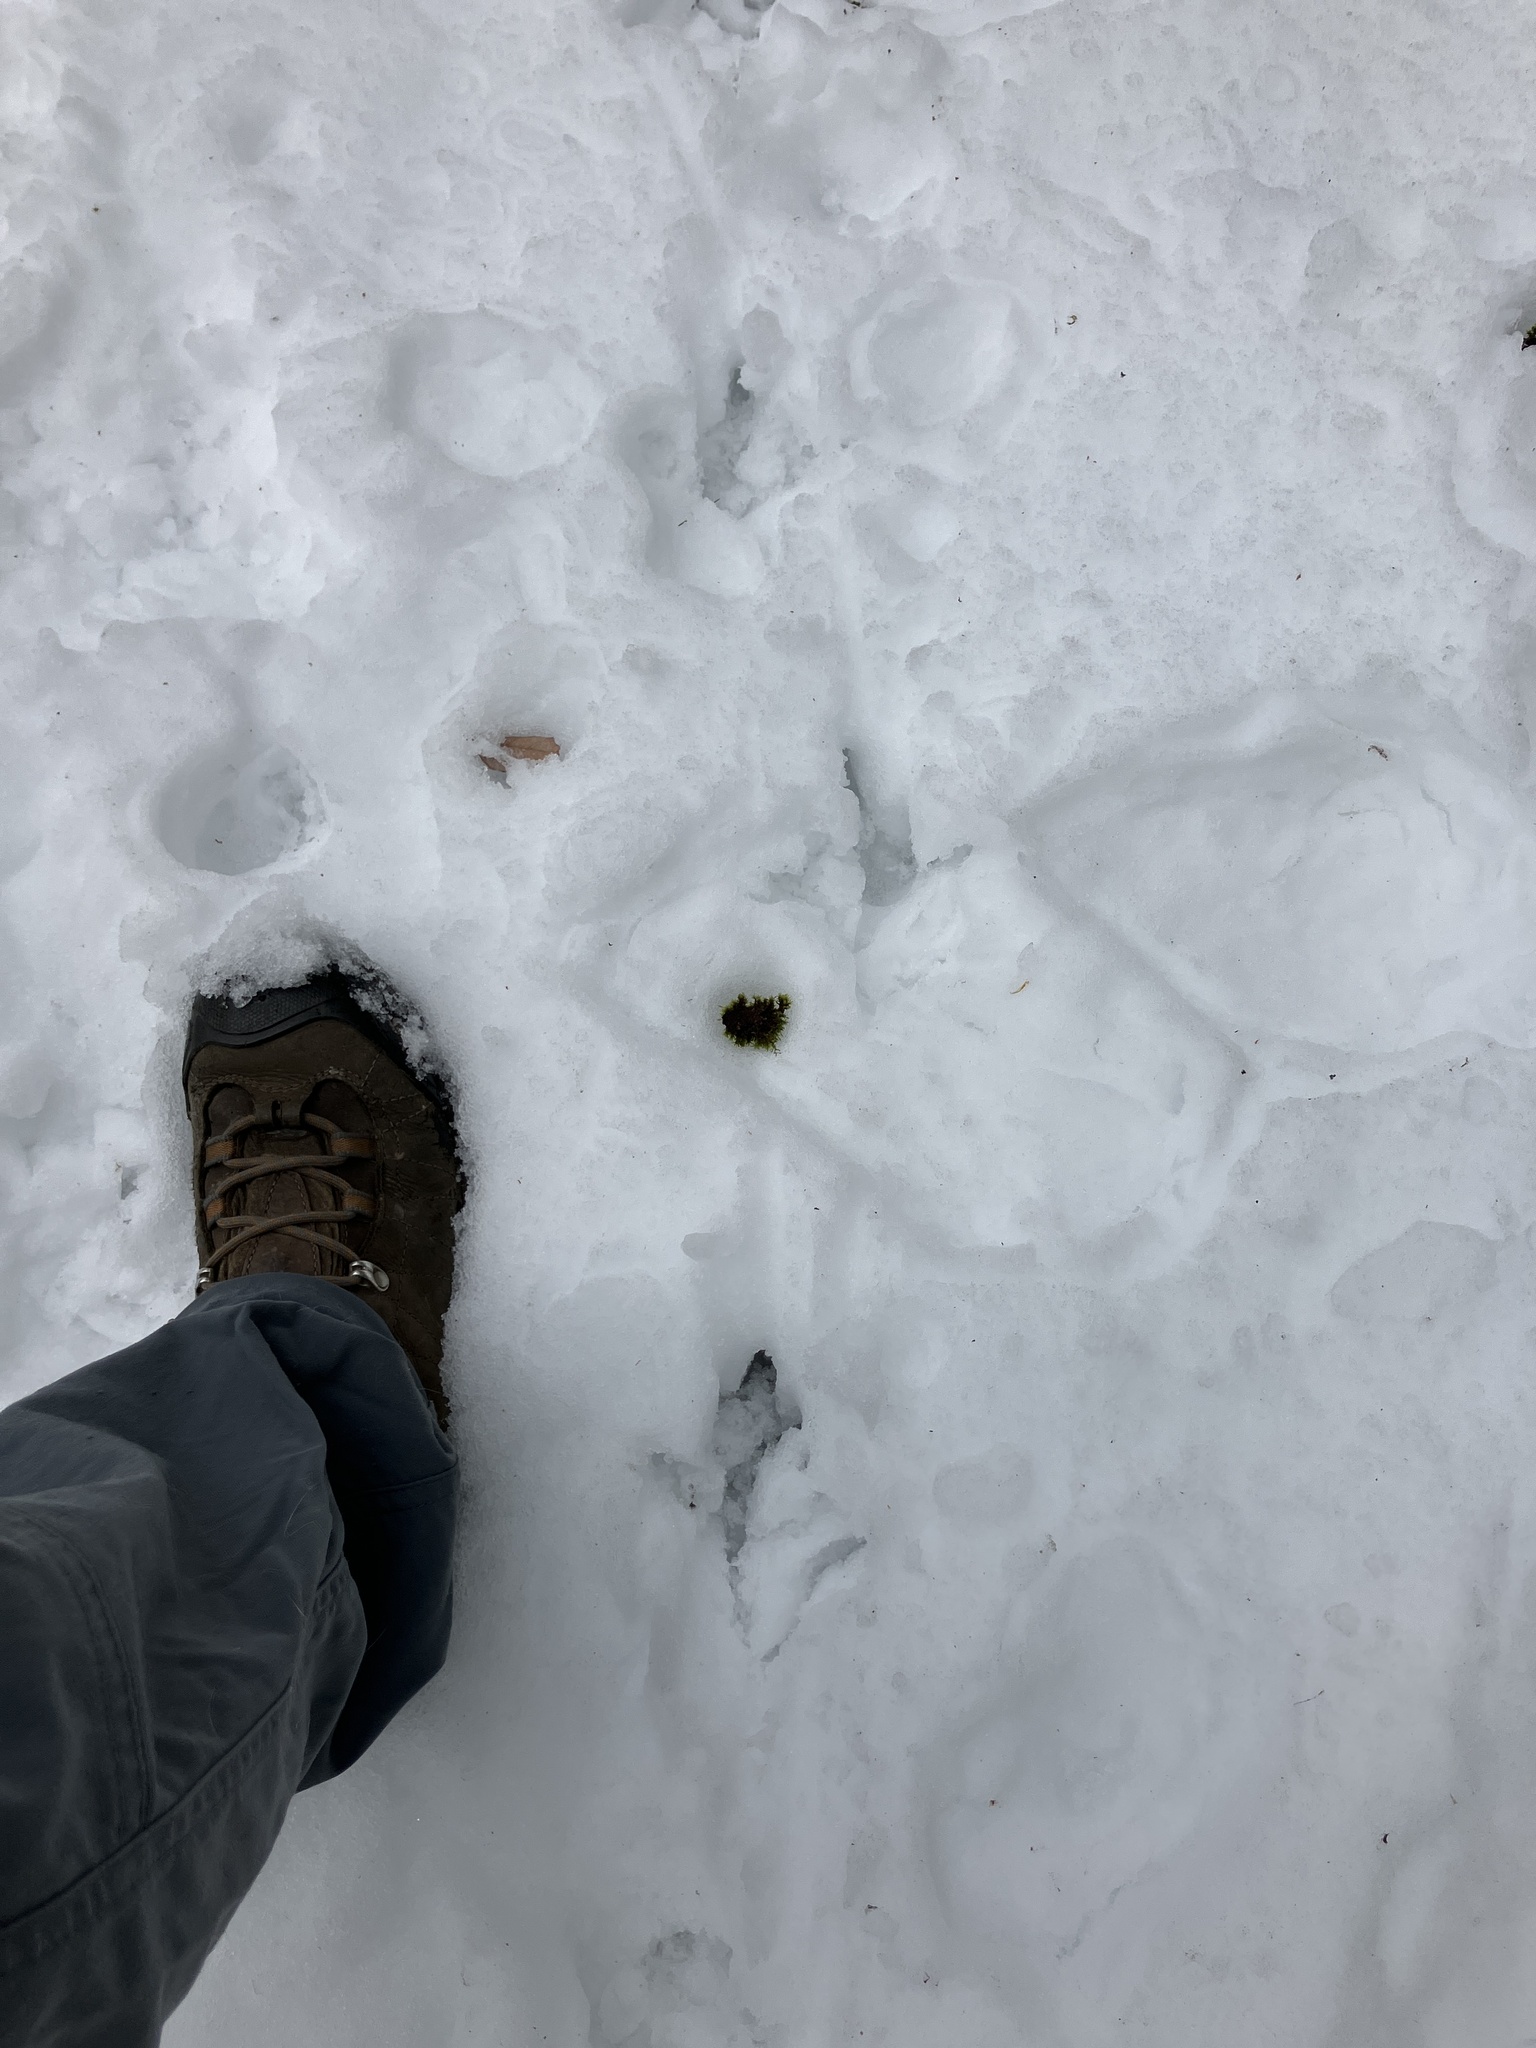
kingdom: Animalia
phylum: Chordata
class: Aves
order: Galliformes
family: Phasianidae
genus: Meleagris
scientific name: Meleagris gallopavo
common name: Wild turkey
